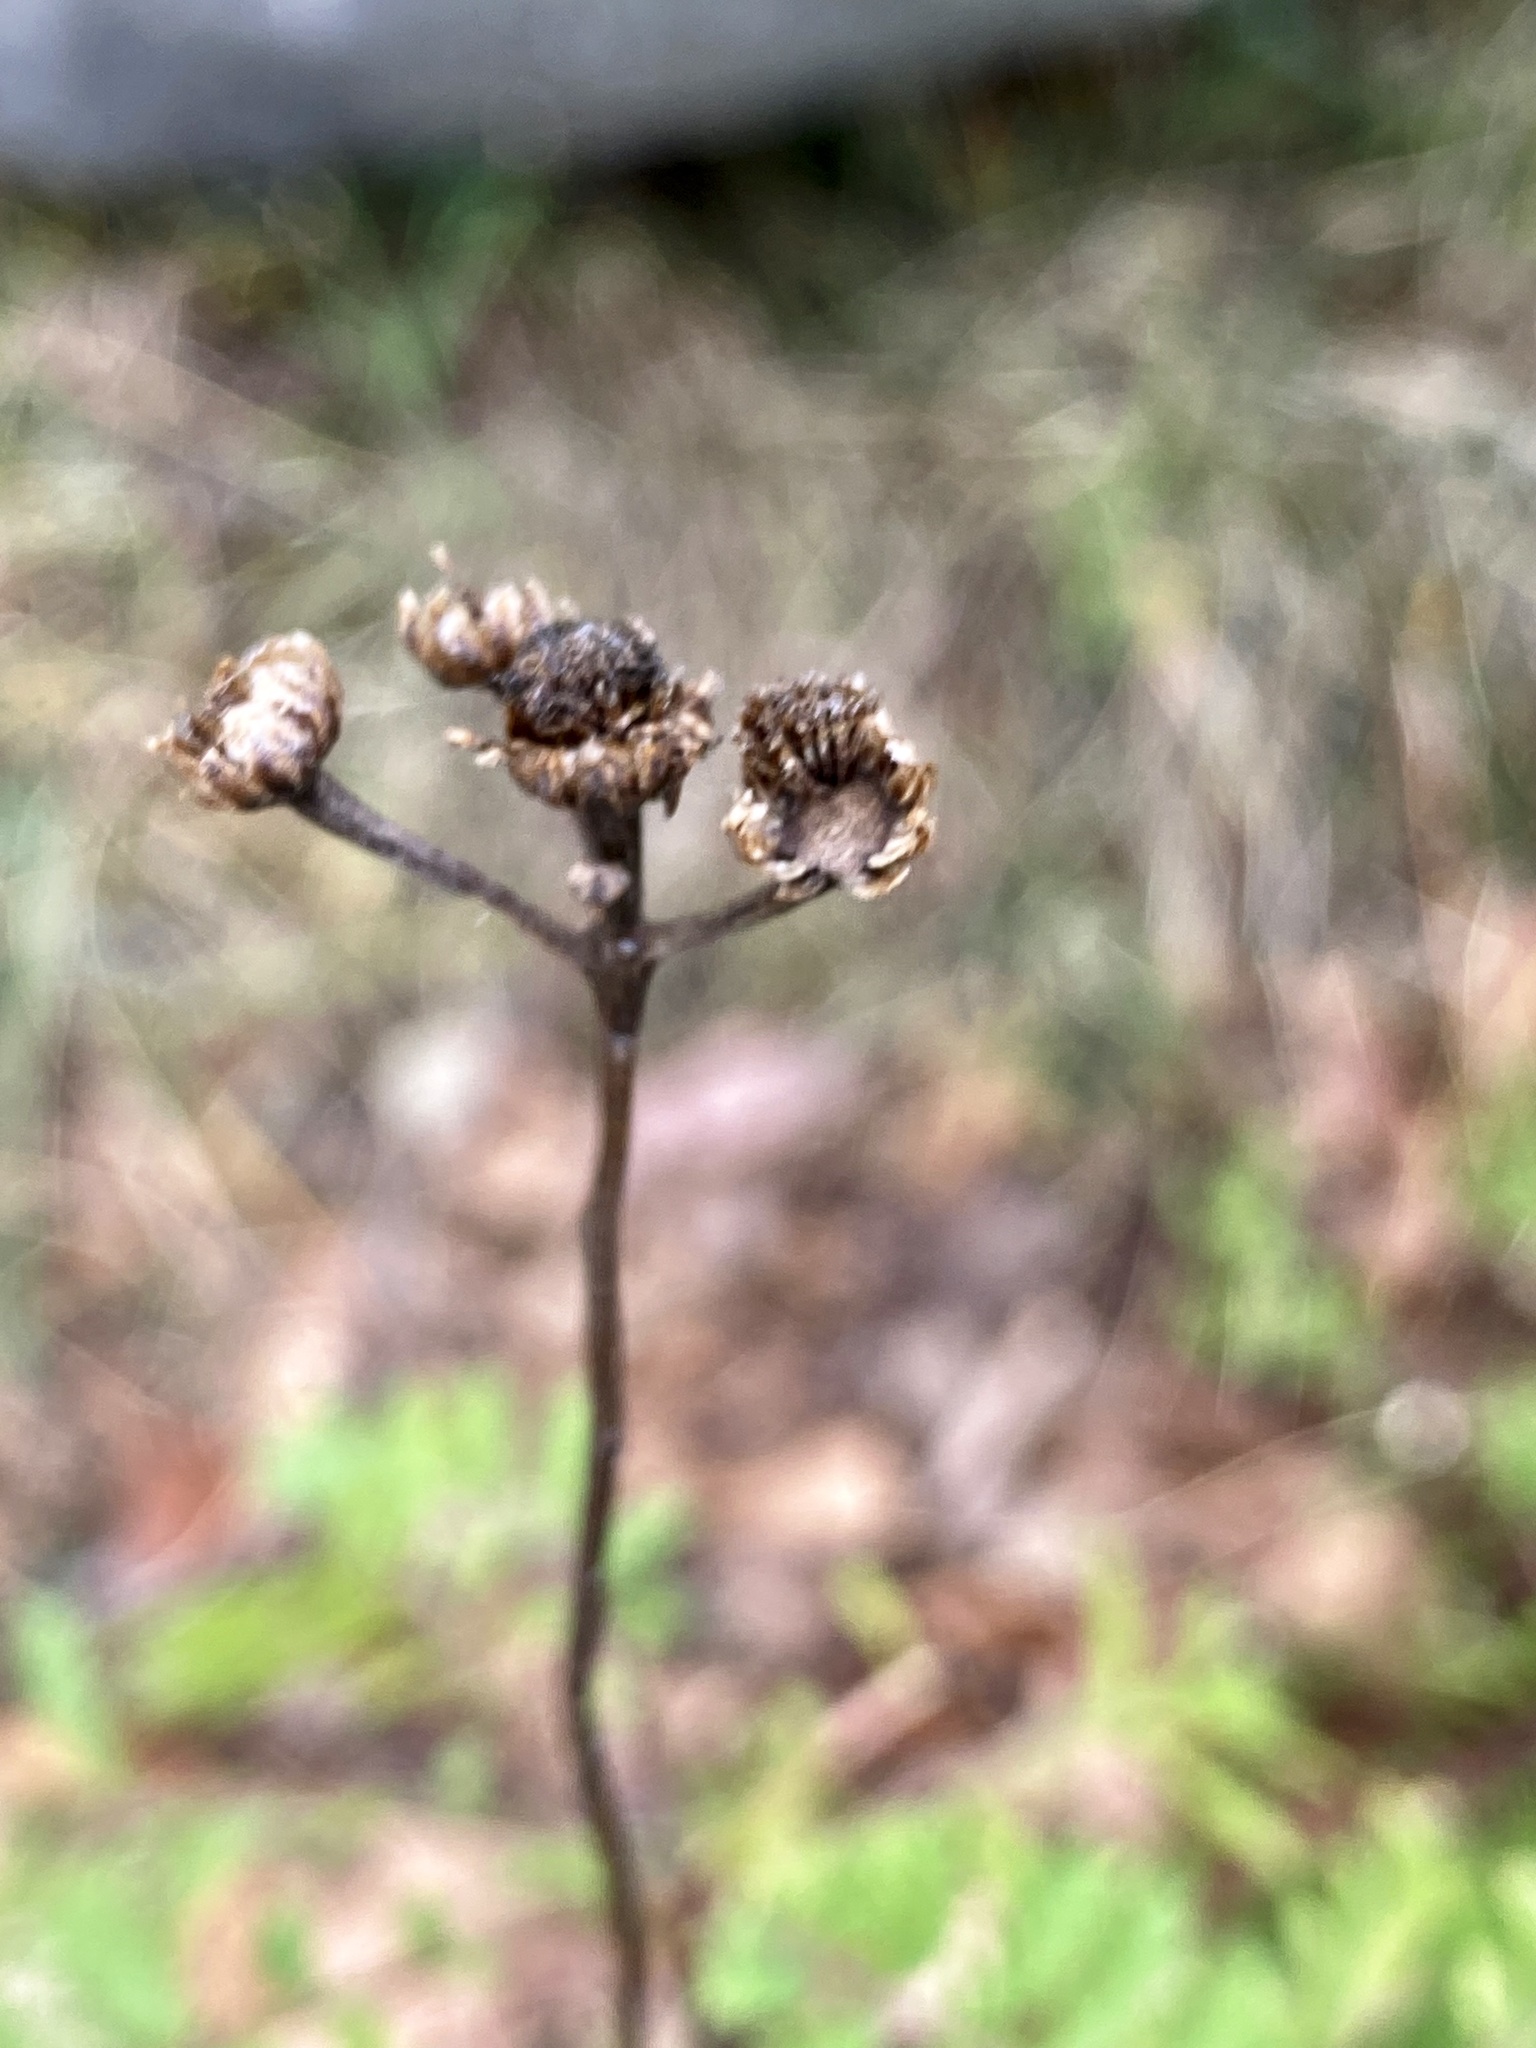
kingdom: Plantae
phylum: Tracheophyta
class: Magnoliopsida
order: Asterales
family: Asteraceae
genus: Tanacetum
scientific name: Tanacetum vulgare
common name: Common tansy
